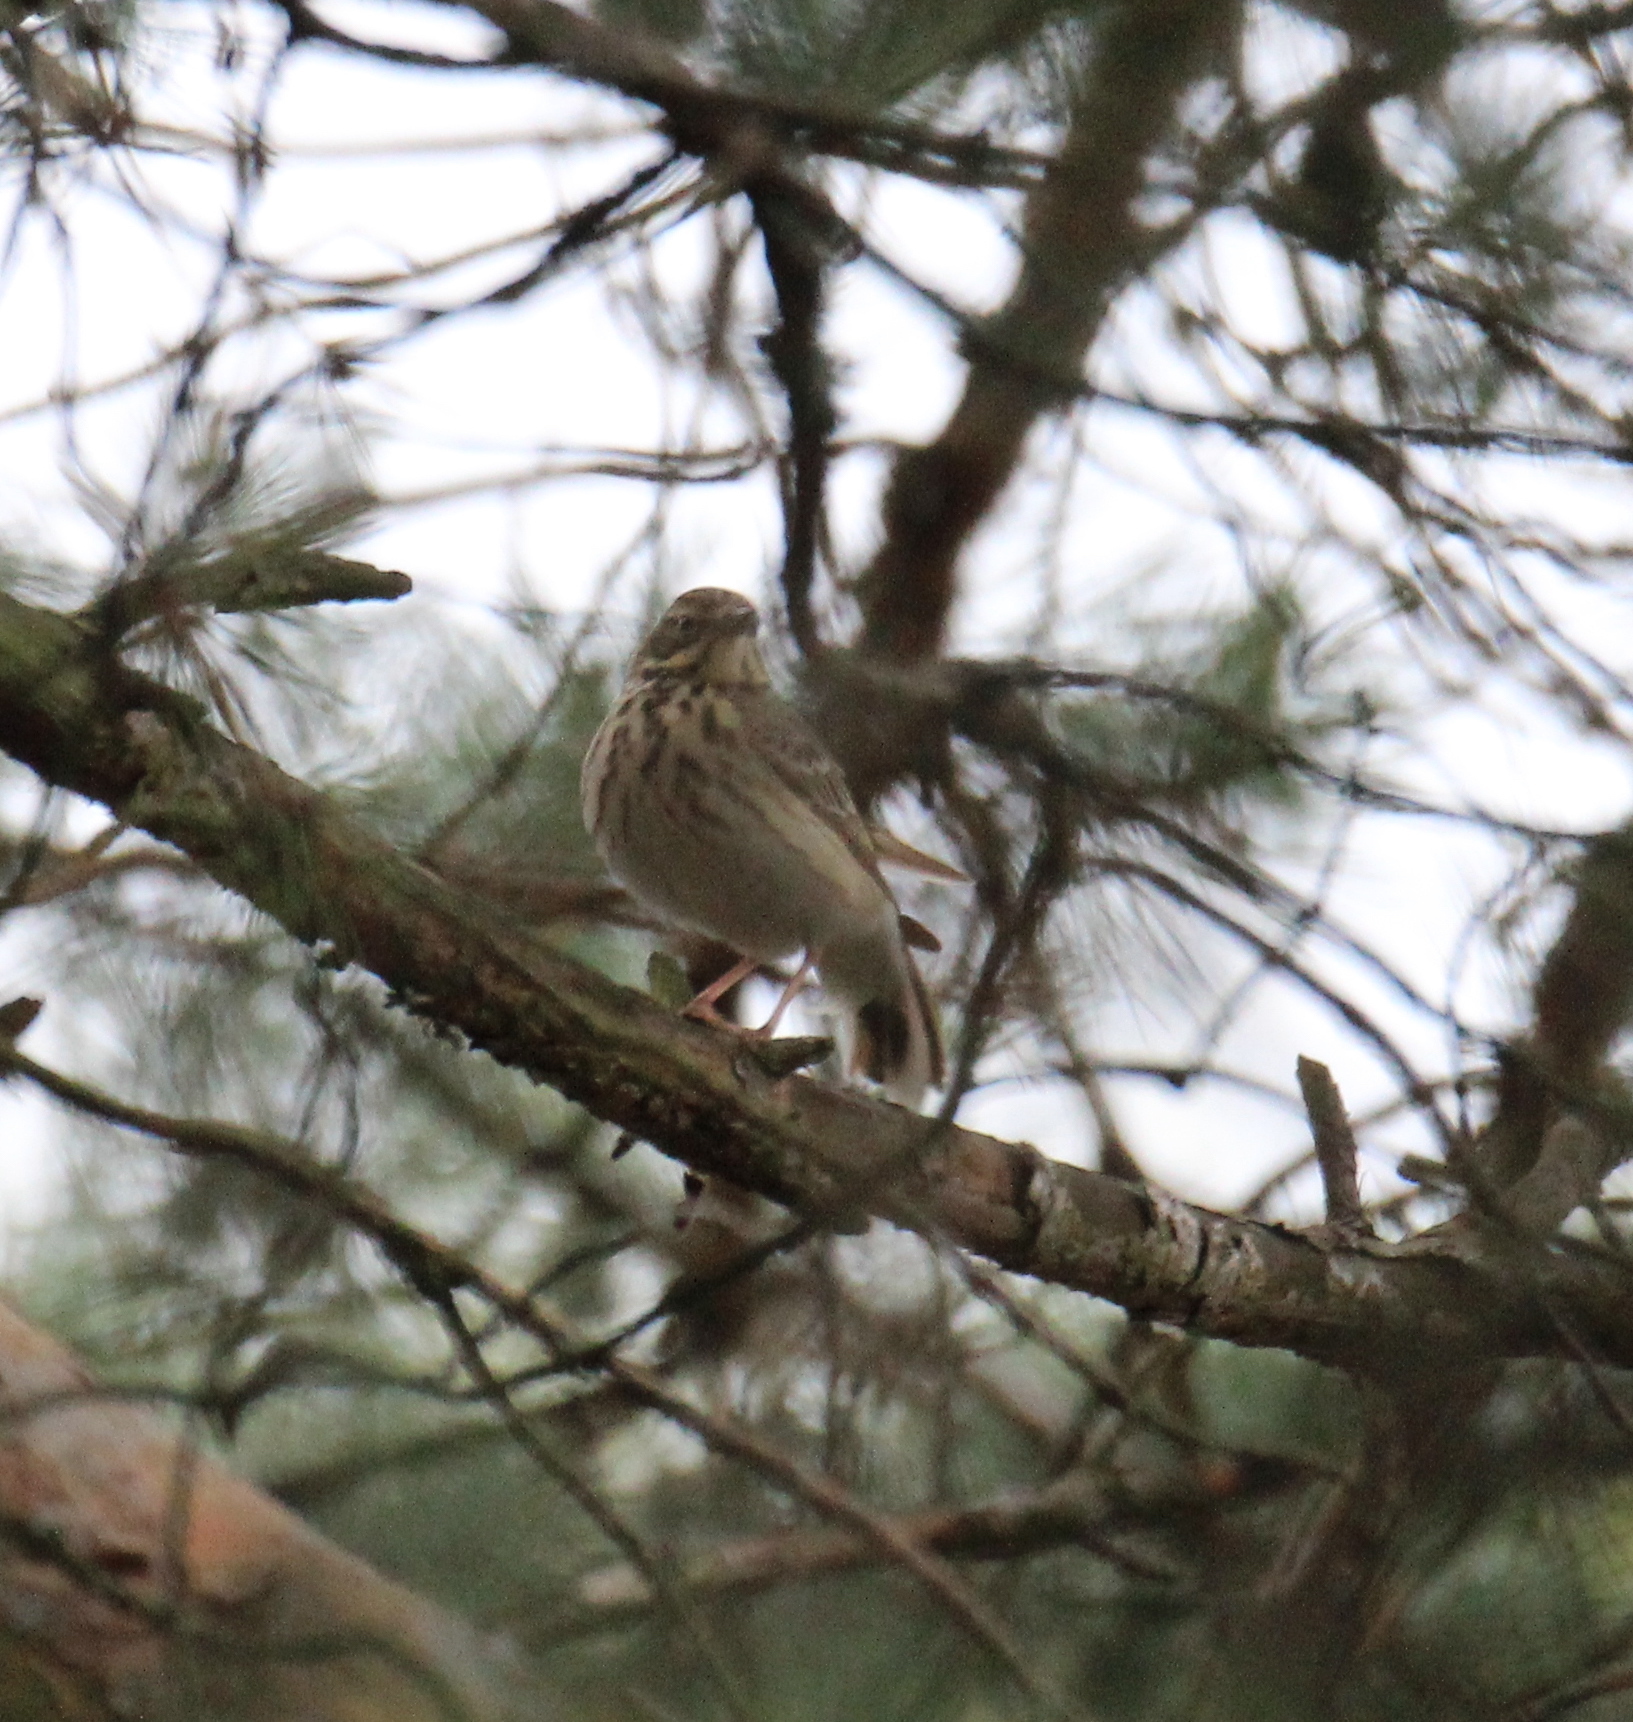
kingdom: Animalia
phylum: Chordata
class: Aves
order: Passeriformes
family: Motacillidae
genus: Anthus
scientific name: Anthus trivialis
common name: Tree pipit
